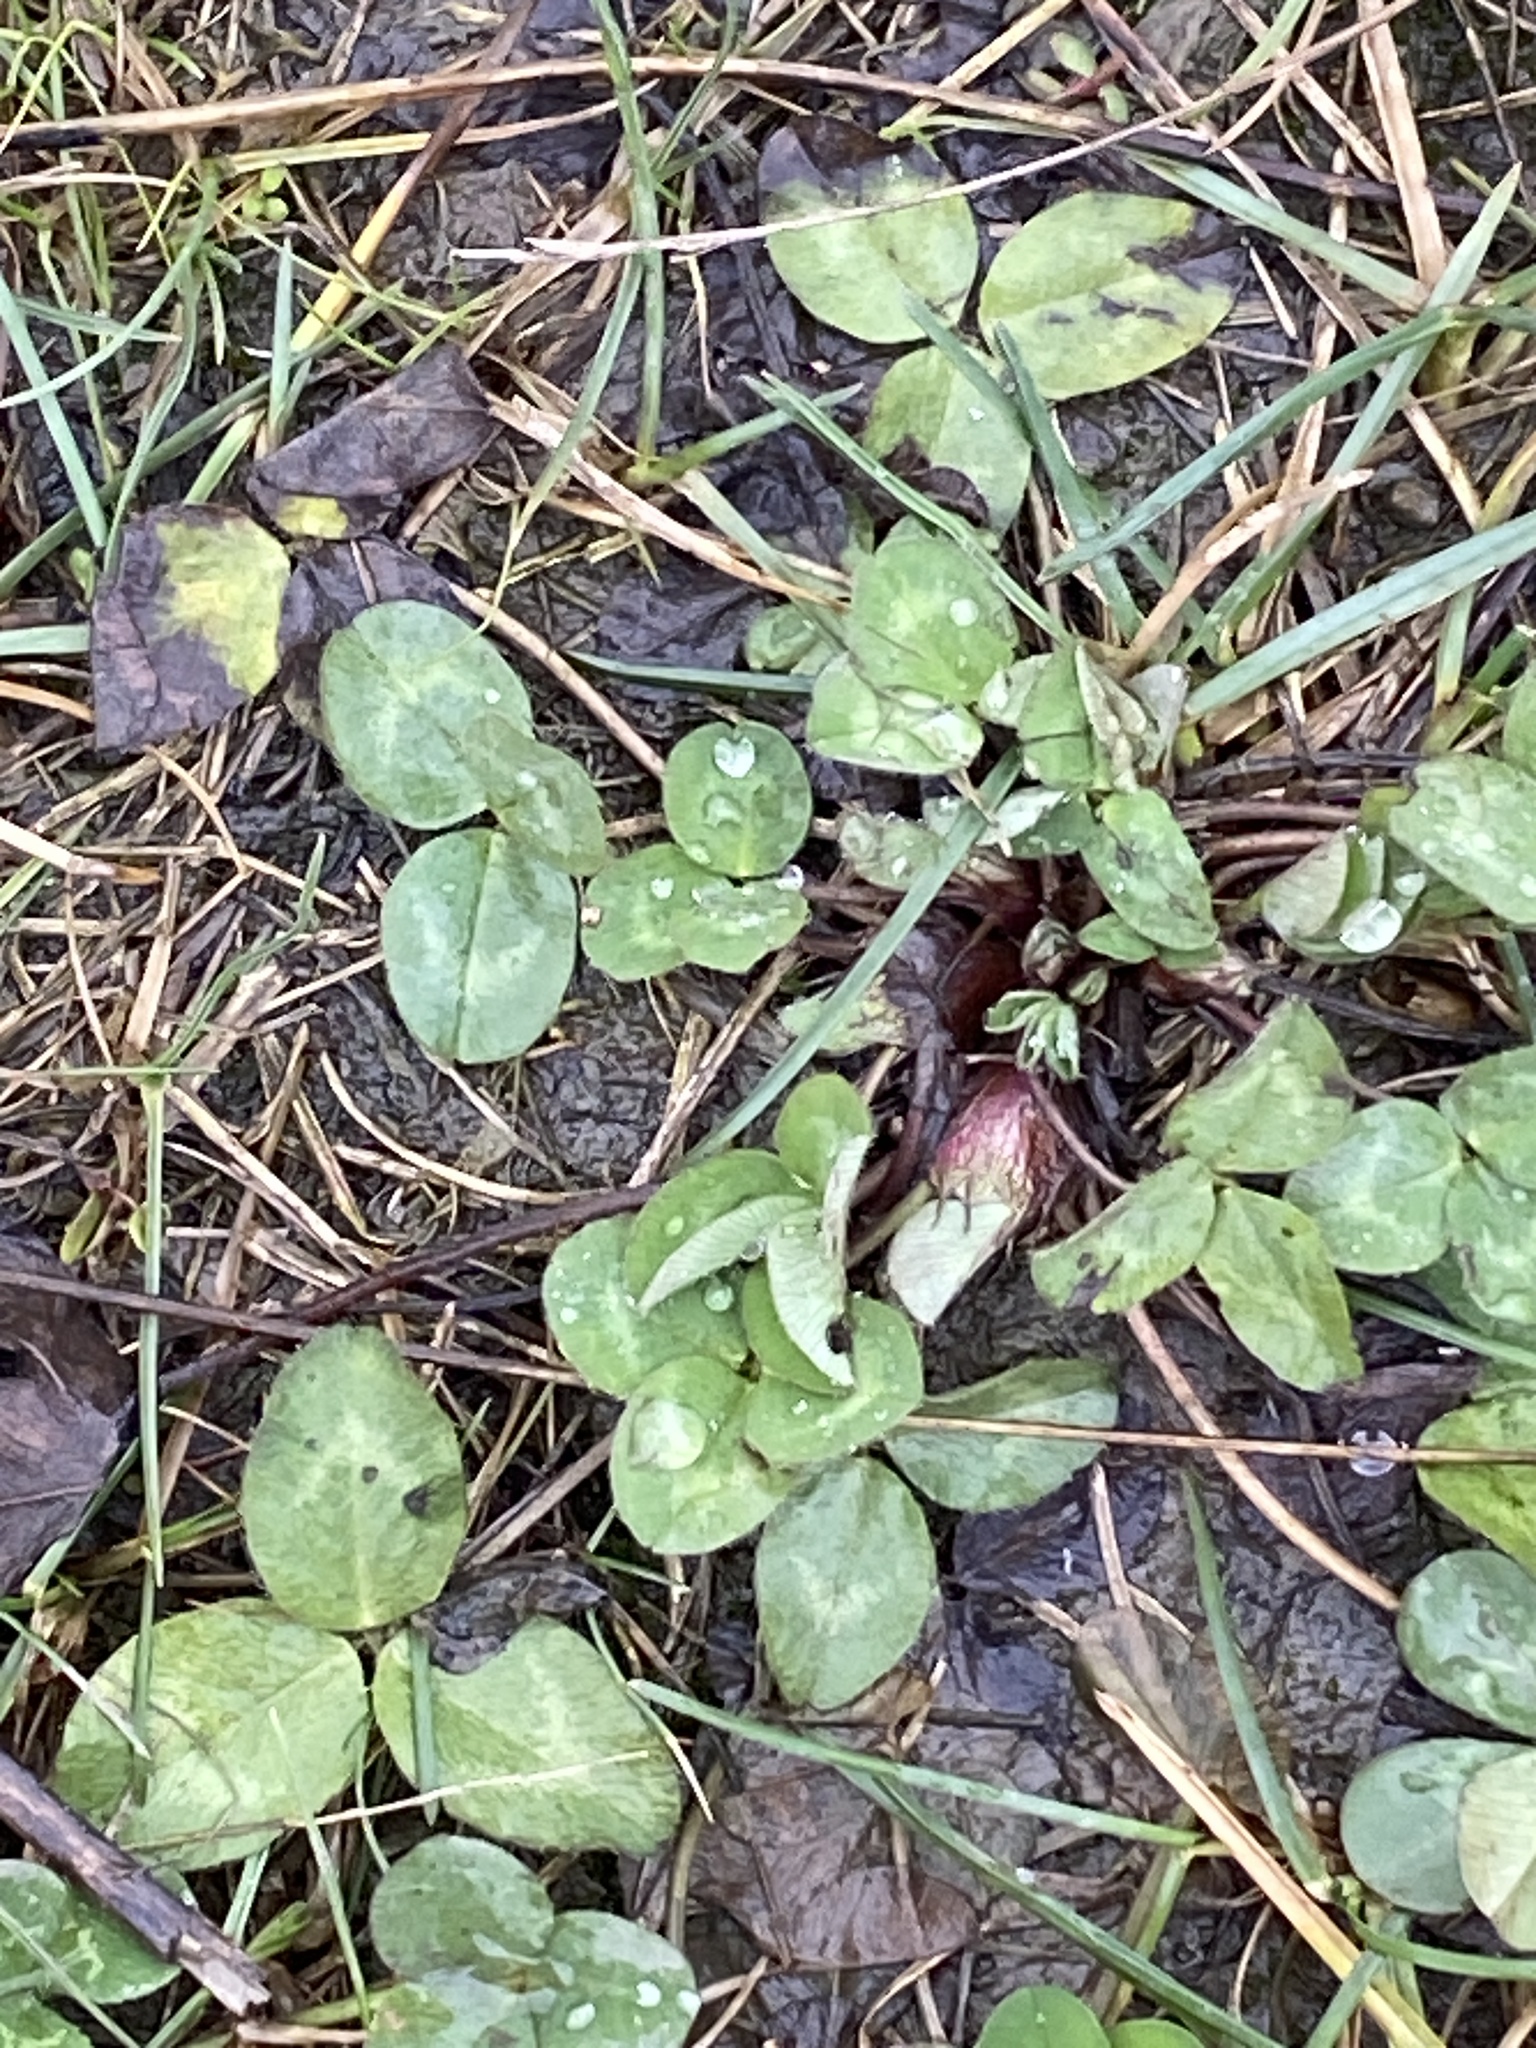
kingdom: Plantae
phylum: Tracheophyta
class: Magnoliopsida
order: Fabales
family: Fabaceae
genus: Trifolium
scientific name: Trifolium pratense
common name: Red clover
